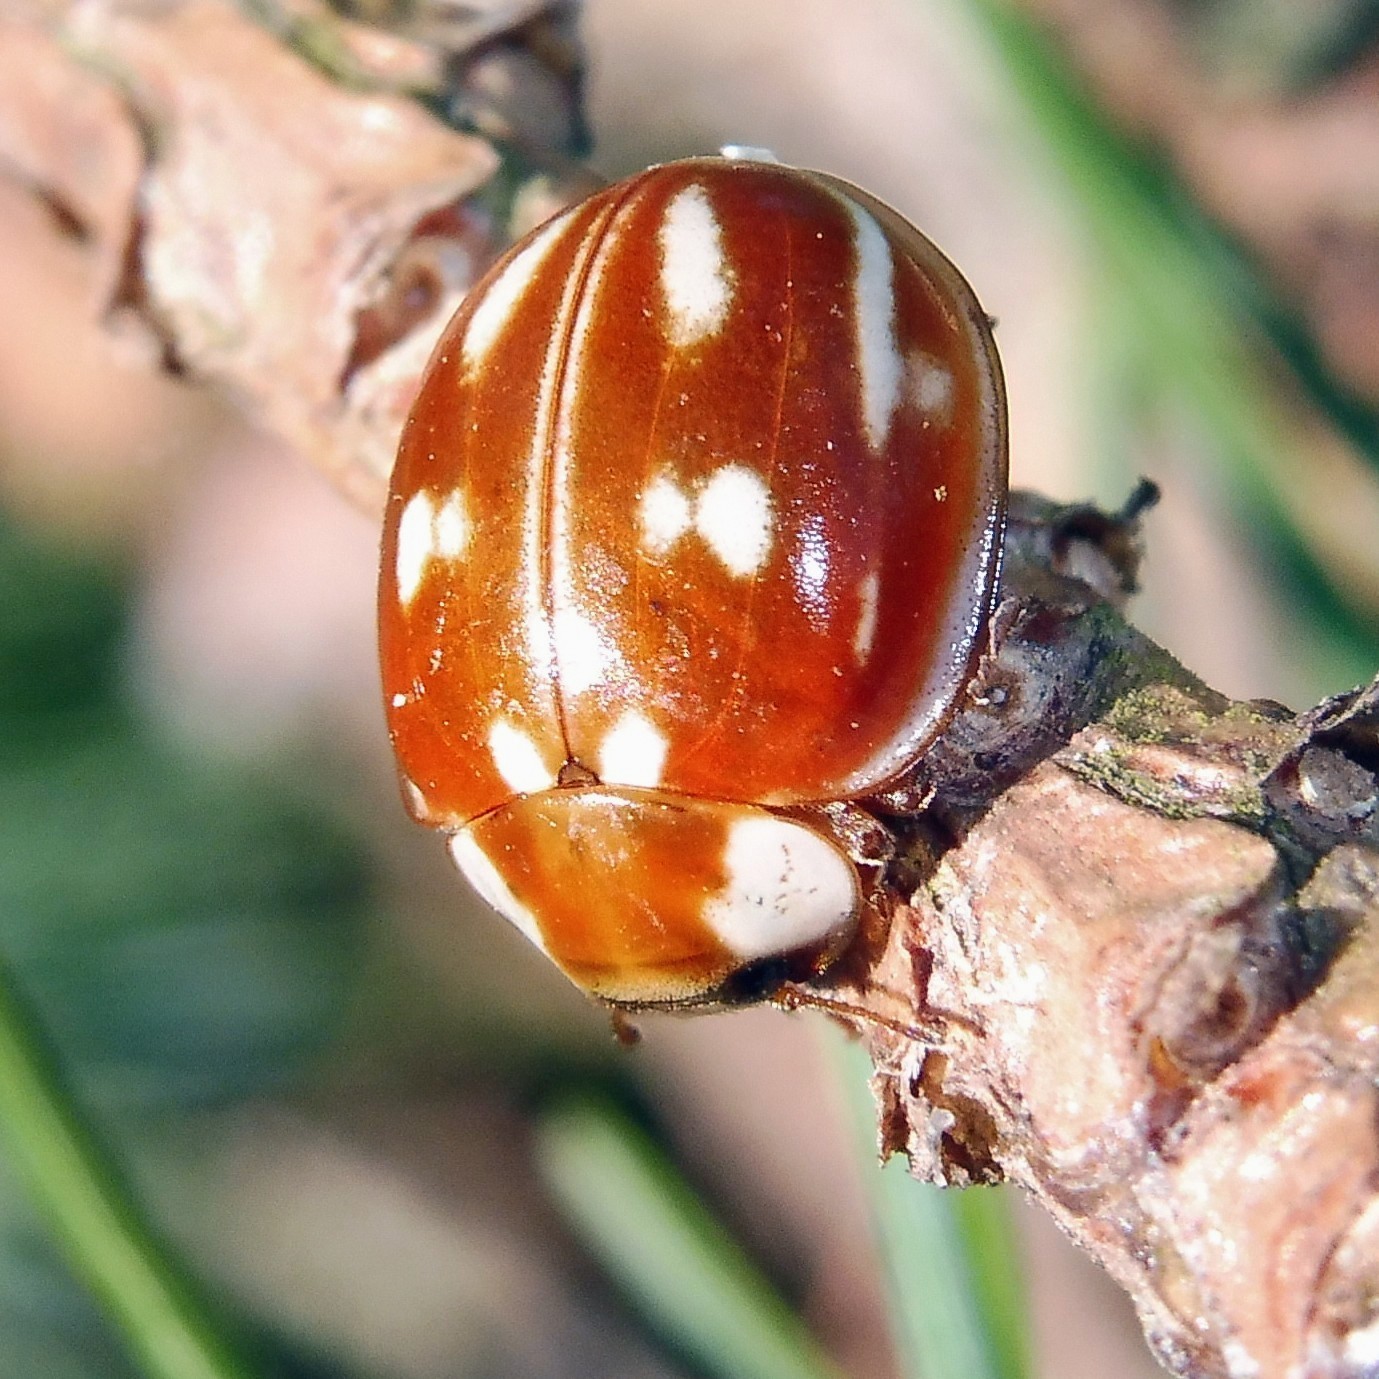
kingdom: Animalia
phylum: Arthropoda
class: Insecta
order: Coleoptera
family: Coccinellidae
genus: Myzia
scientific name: Myzia oblongoguttata
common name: Striped ladybird
